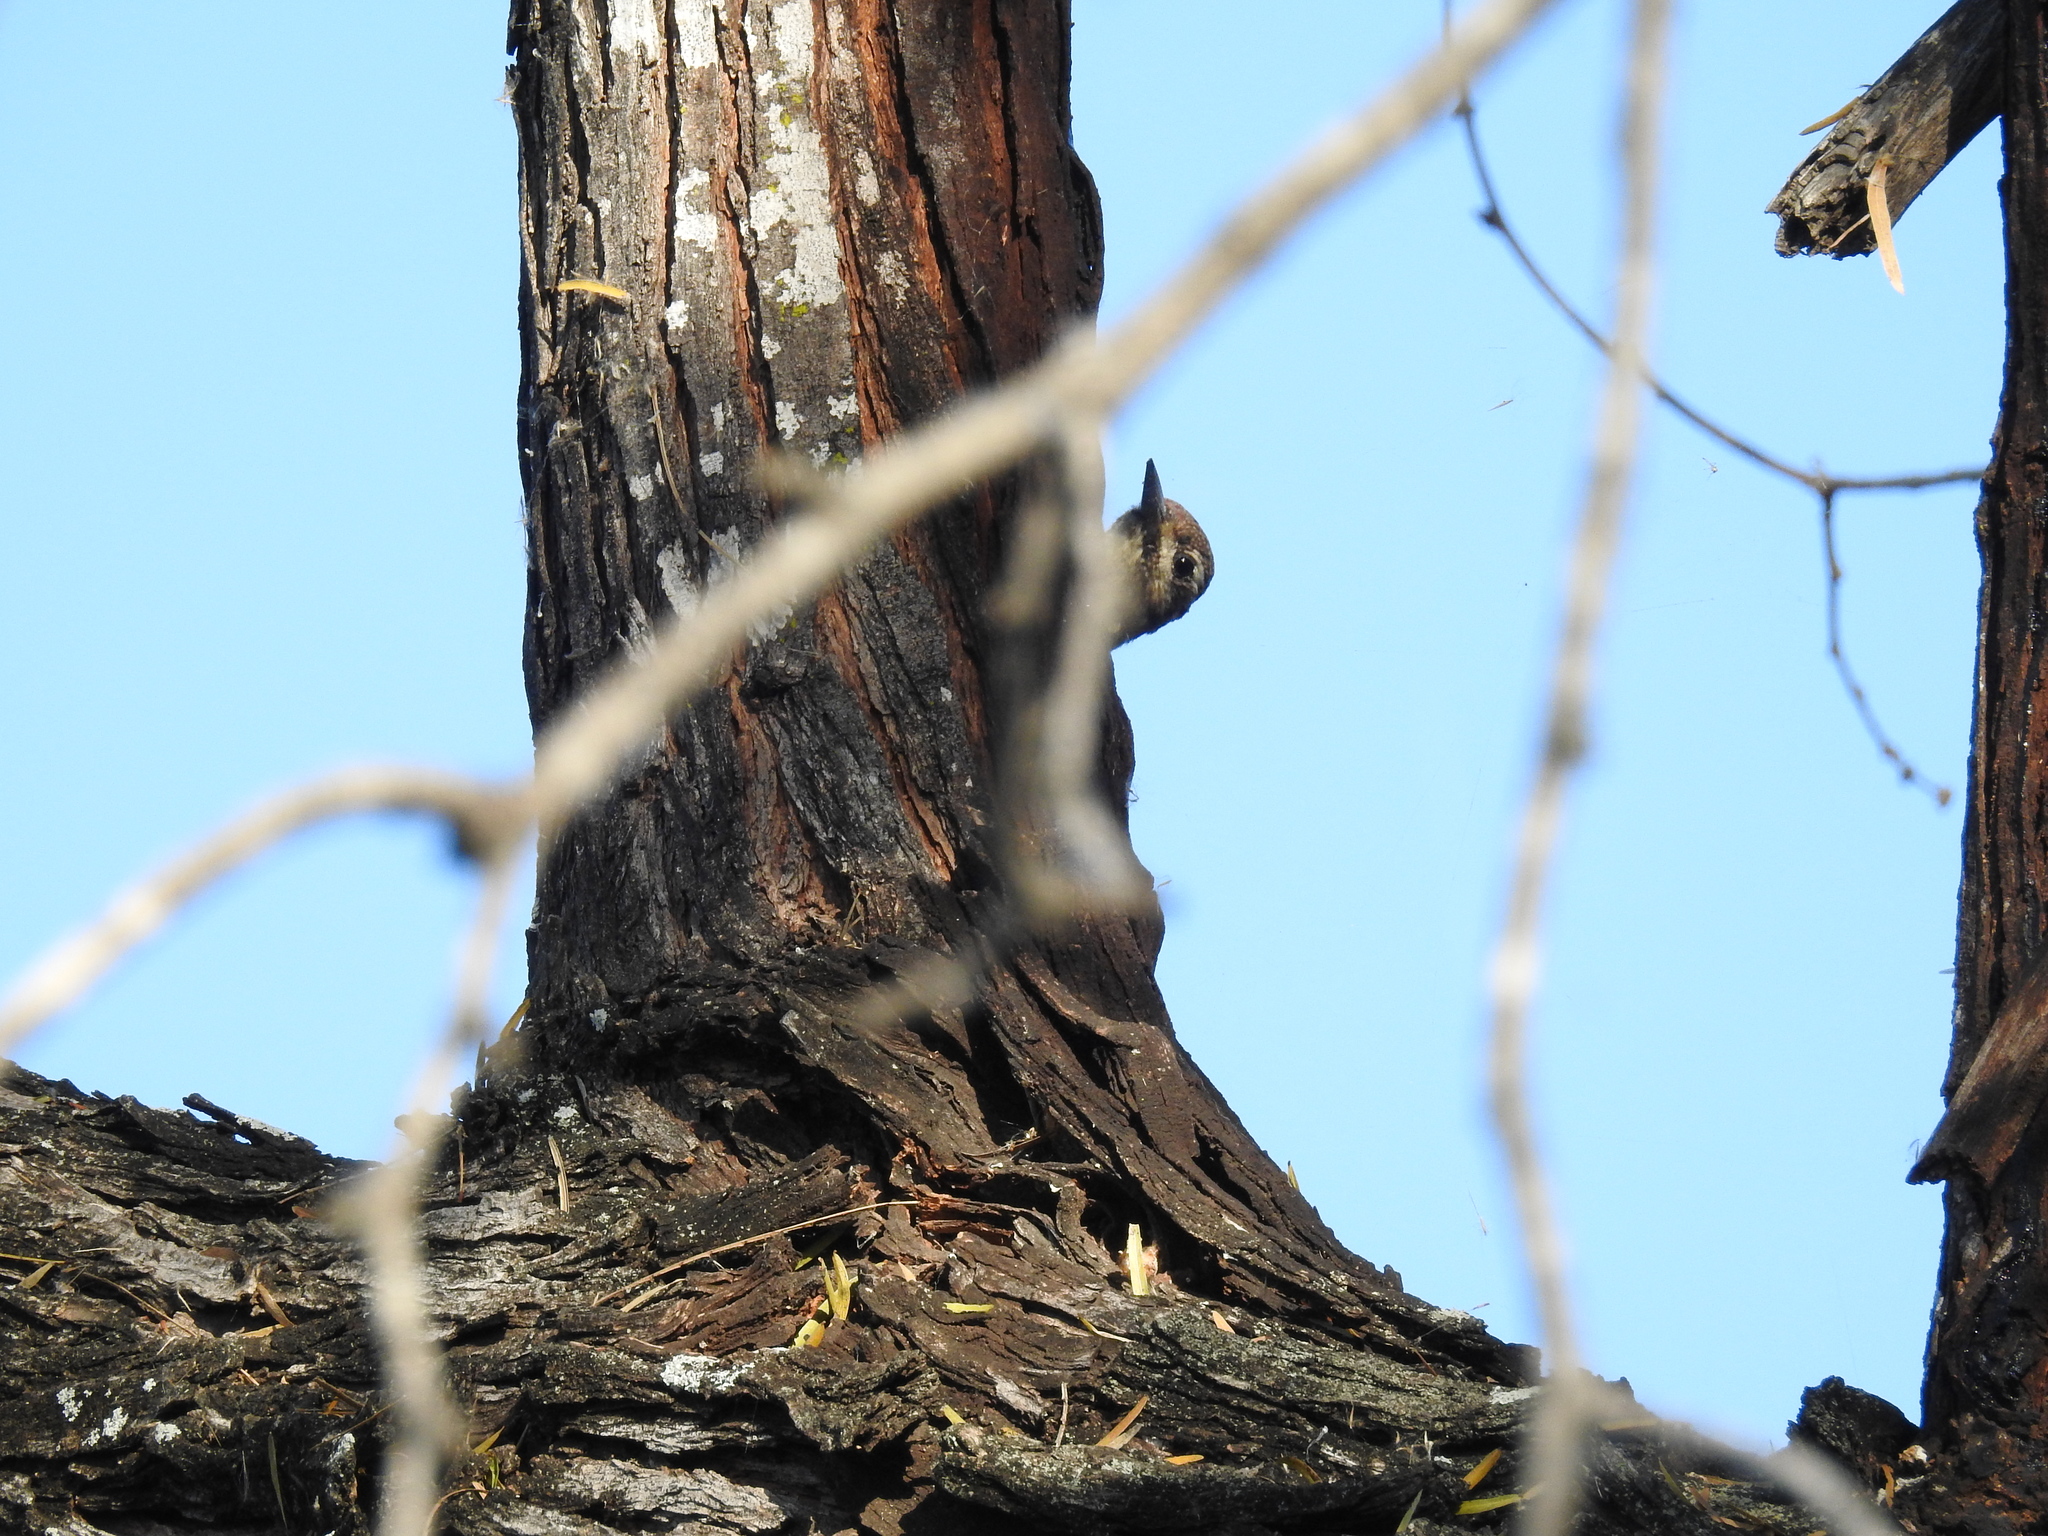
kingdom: Animalia
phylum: Chordata
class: Aves
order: Piciformes
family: Picidae
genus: Sphyrapicus
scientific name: Sphyrapicus varius
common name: Yellow-bellied sapsucker
